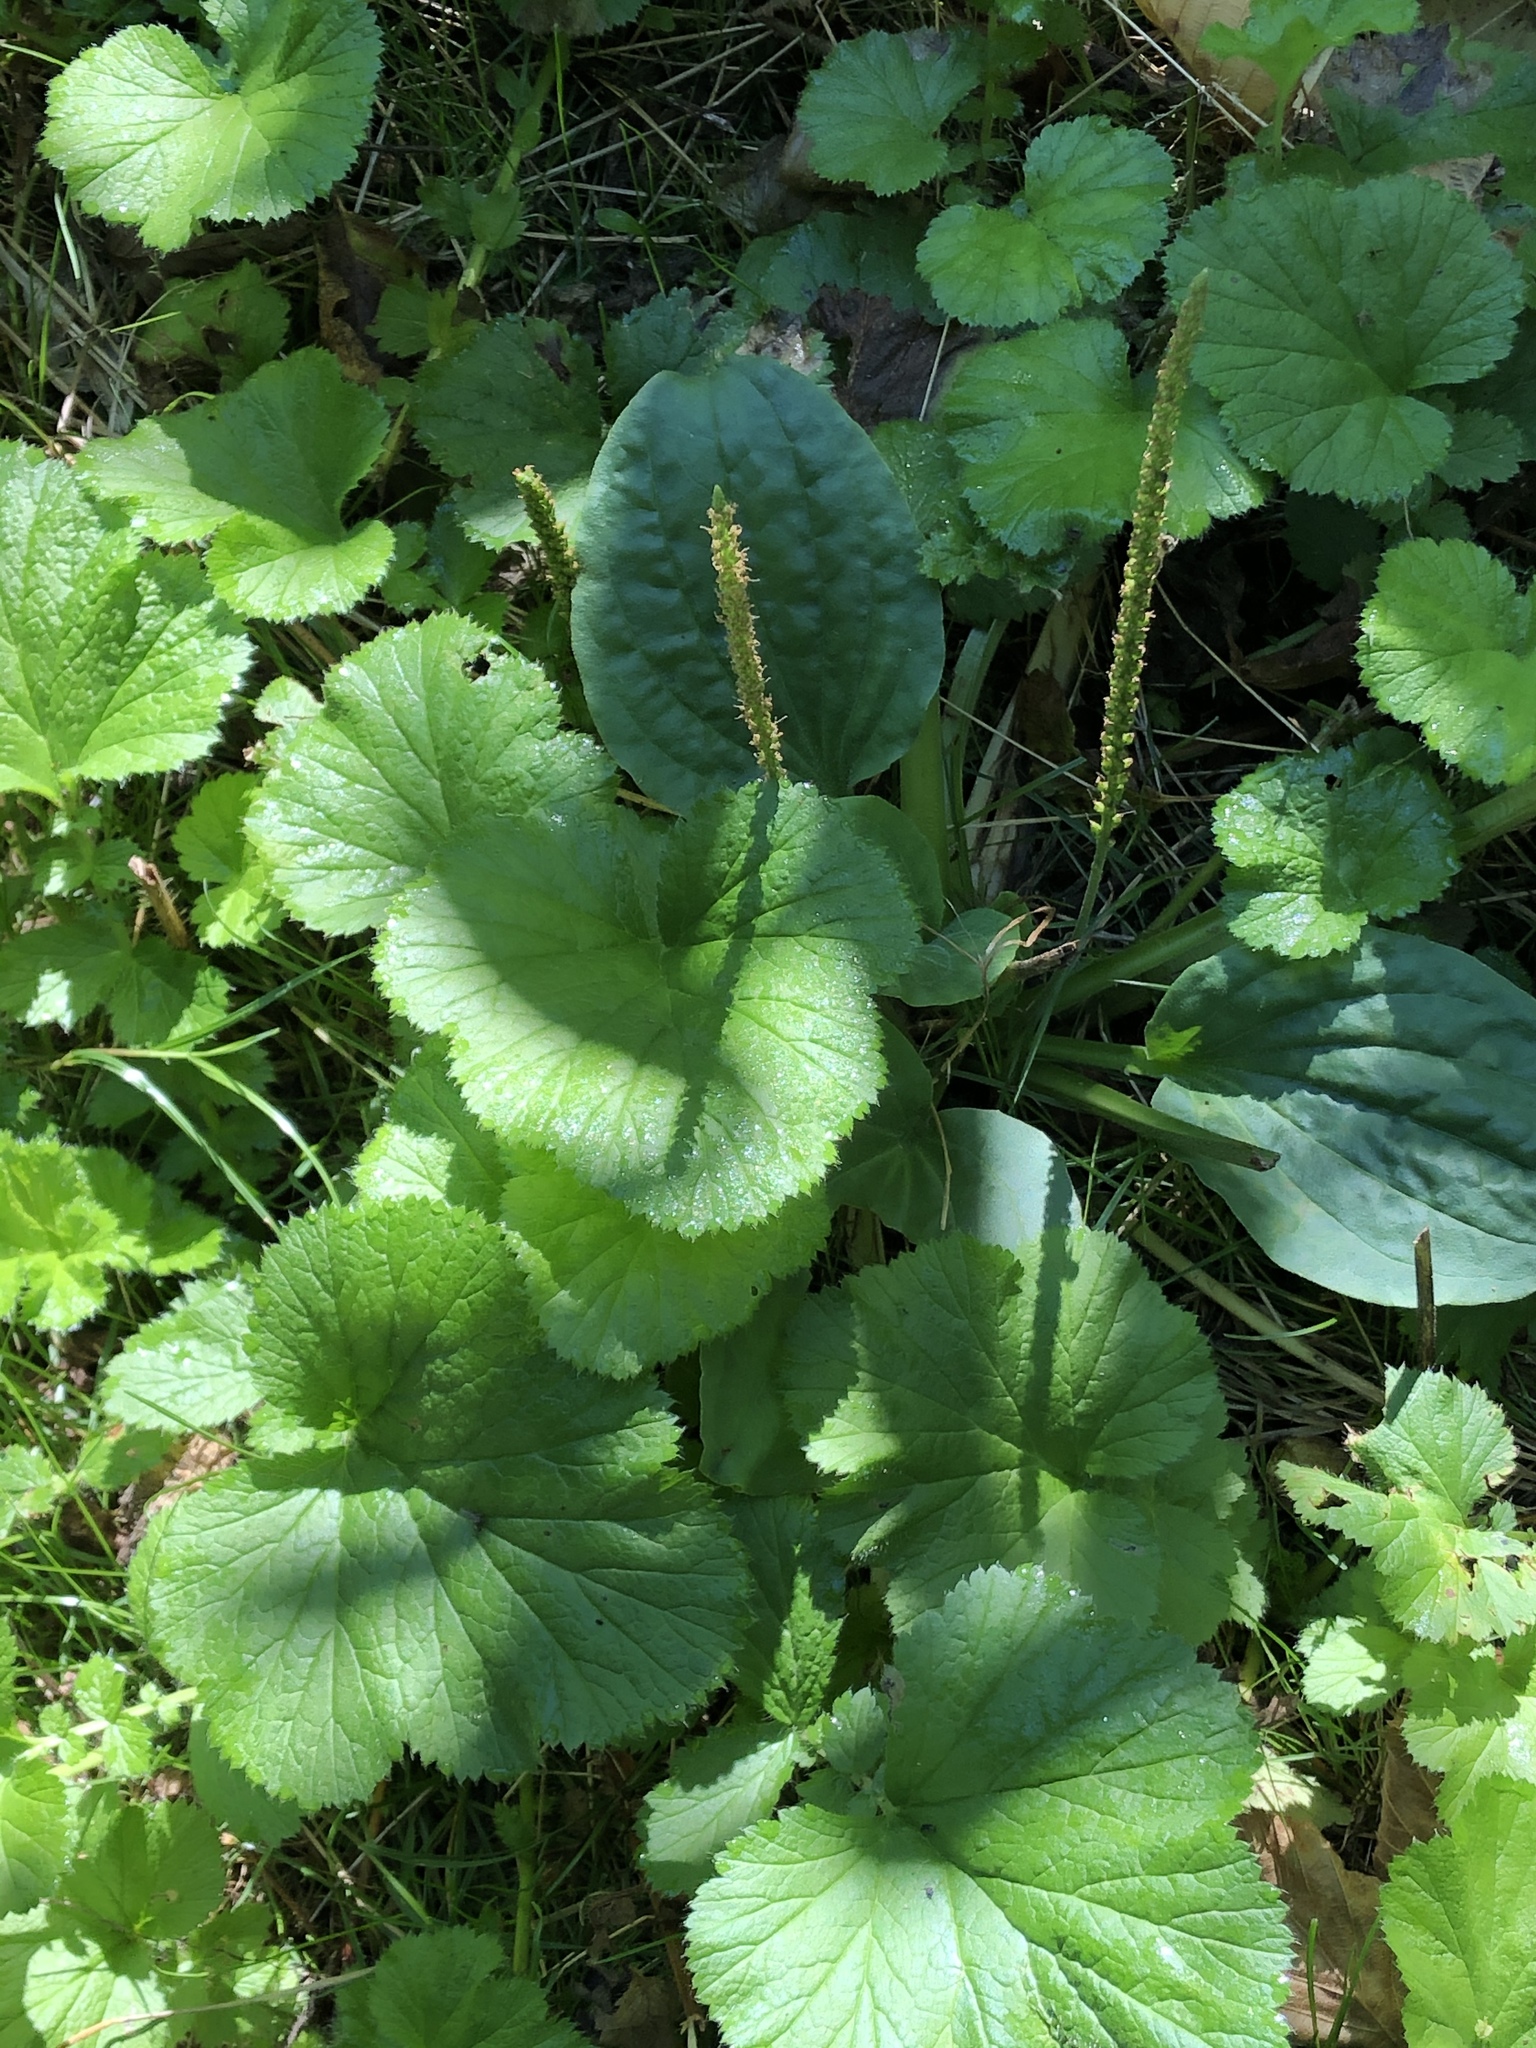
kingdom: Plantae
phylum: Tracheophyta
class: Magnoliopsida
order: Rosales
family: Rosaceae
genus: Geum
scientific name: Geum macrophyllum
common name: Large-leaved avens
